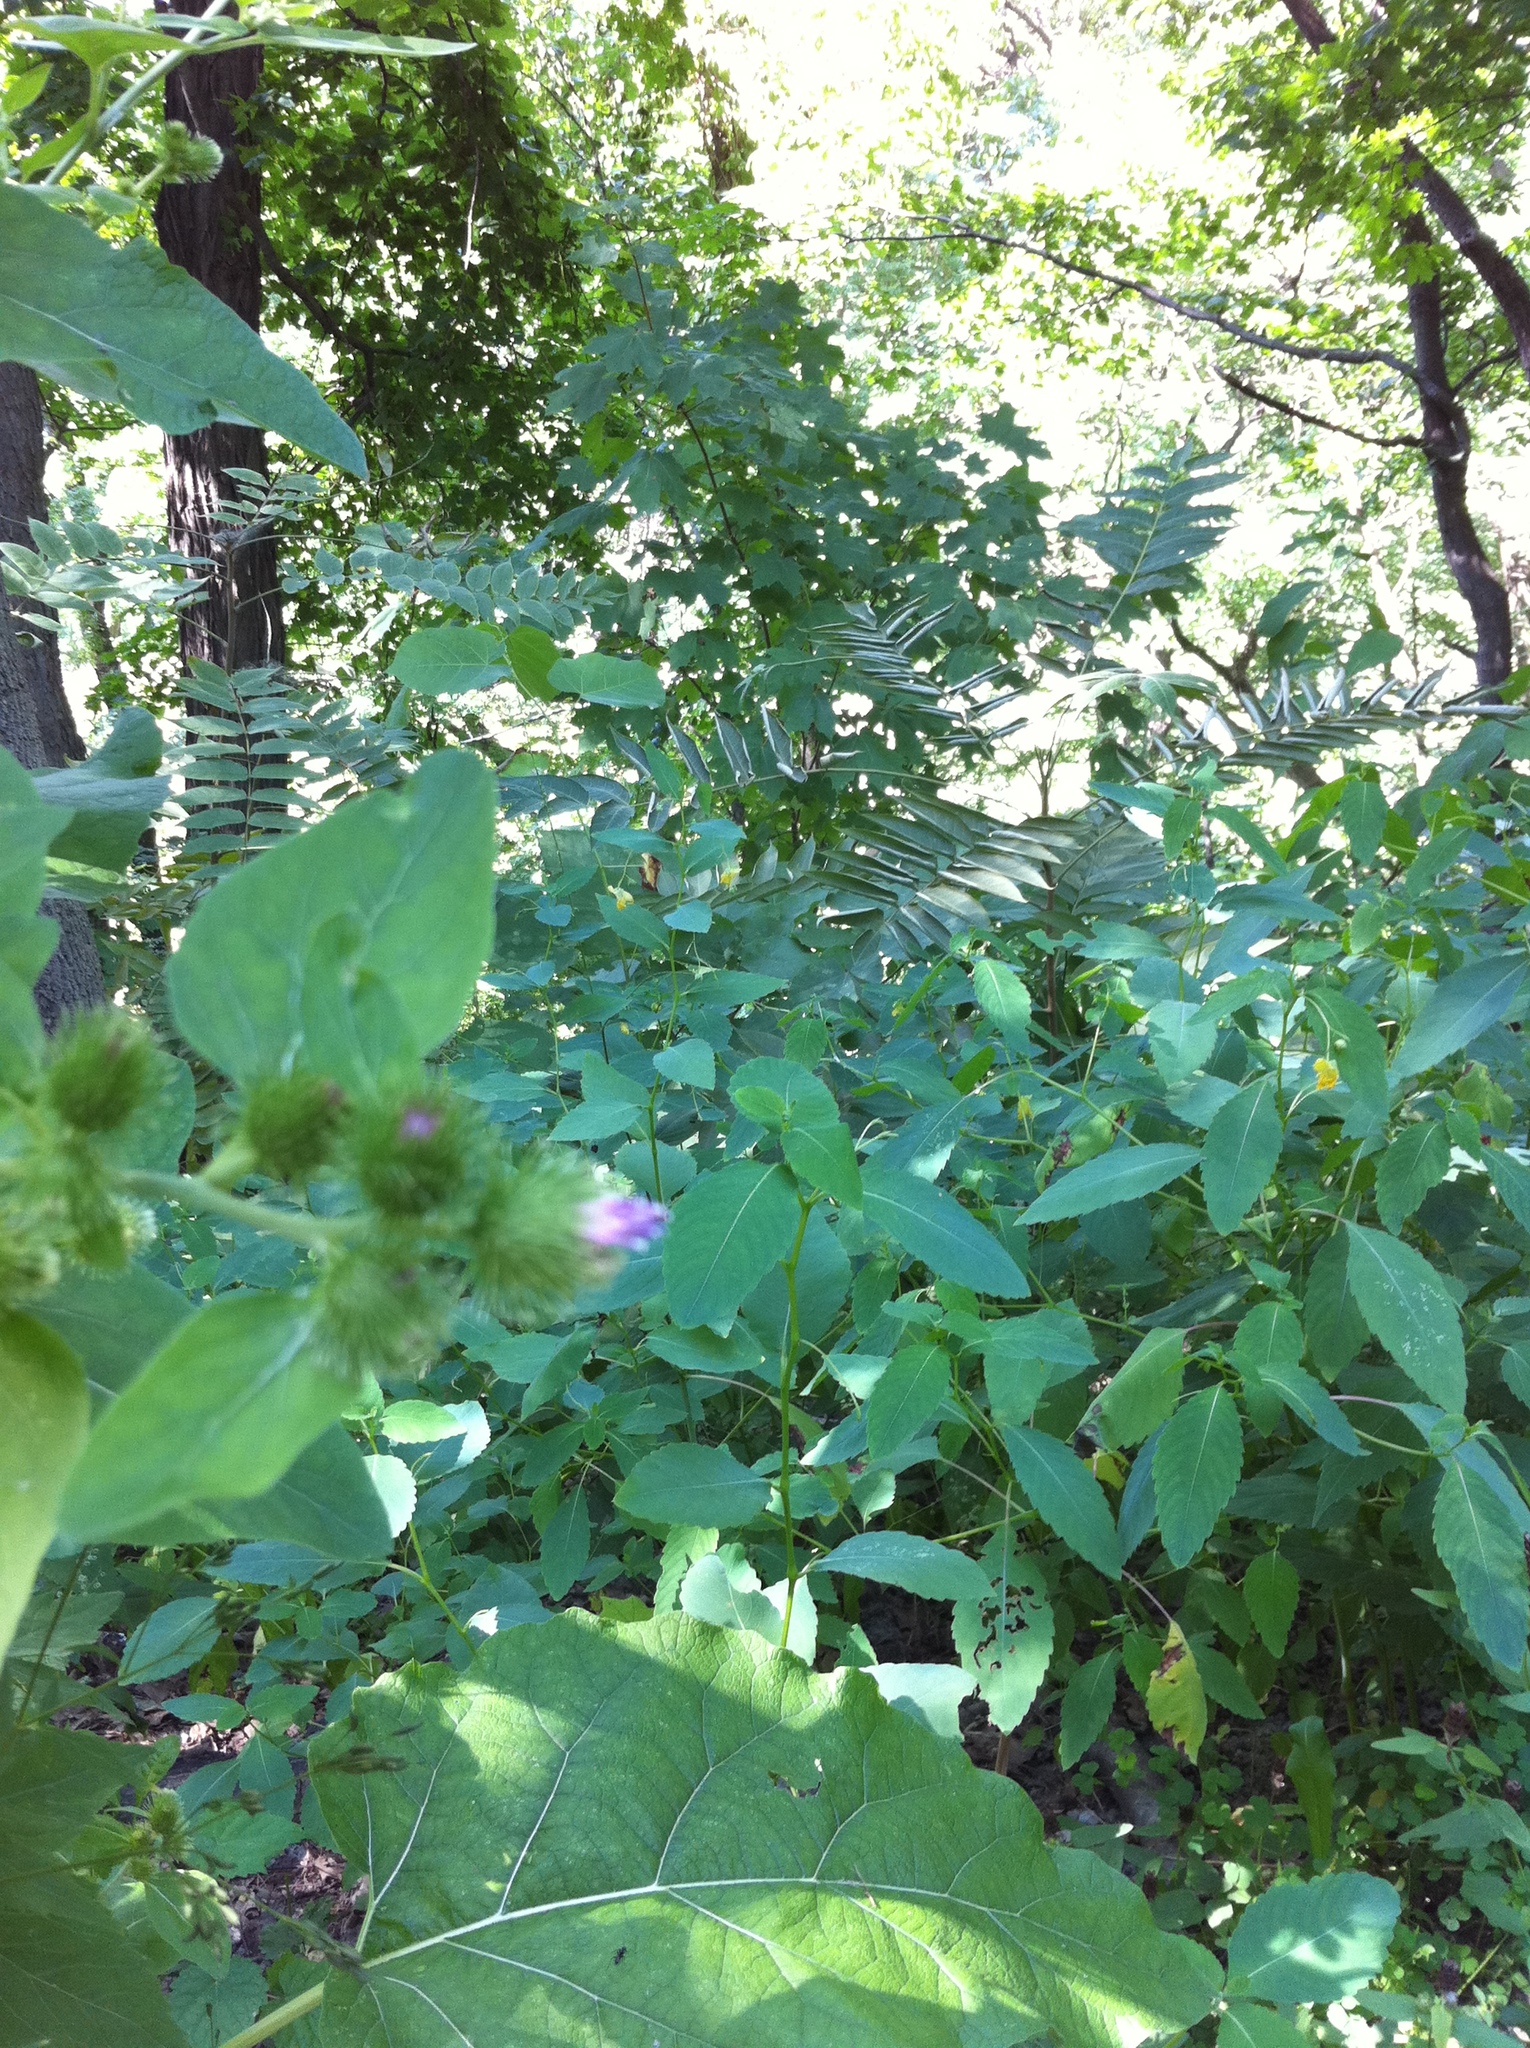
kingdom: Plantae
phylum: Tracheophyta
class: Magnoliopsida
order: Asterales
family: Asteraceae
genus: Arctium
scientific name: Arctium minus
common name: Lesser burdock
